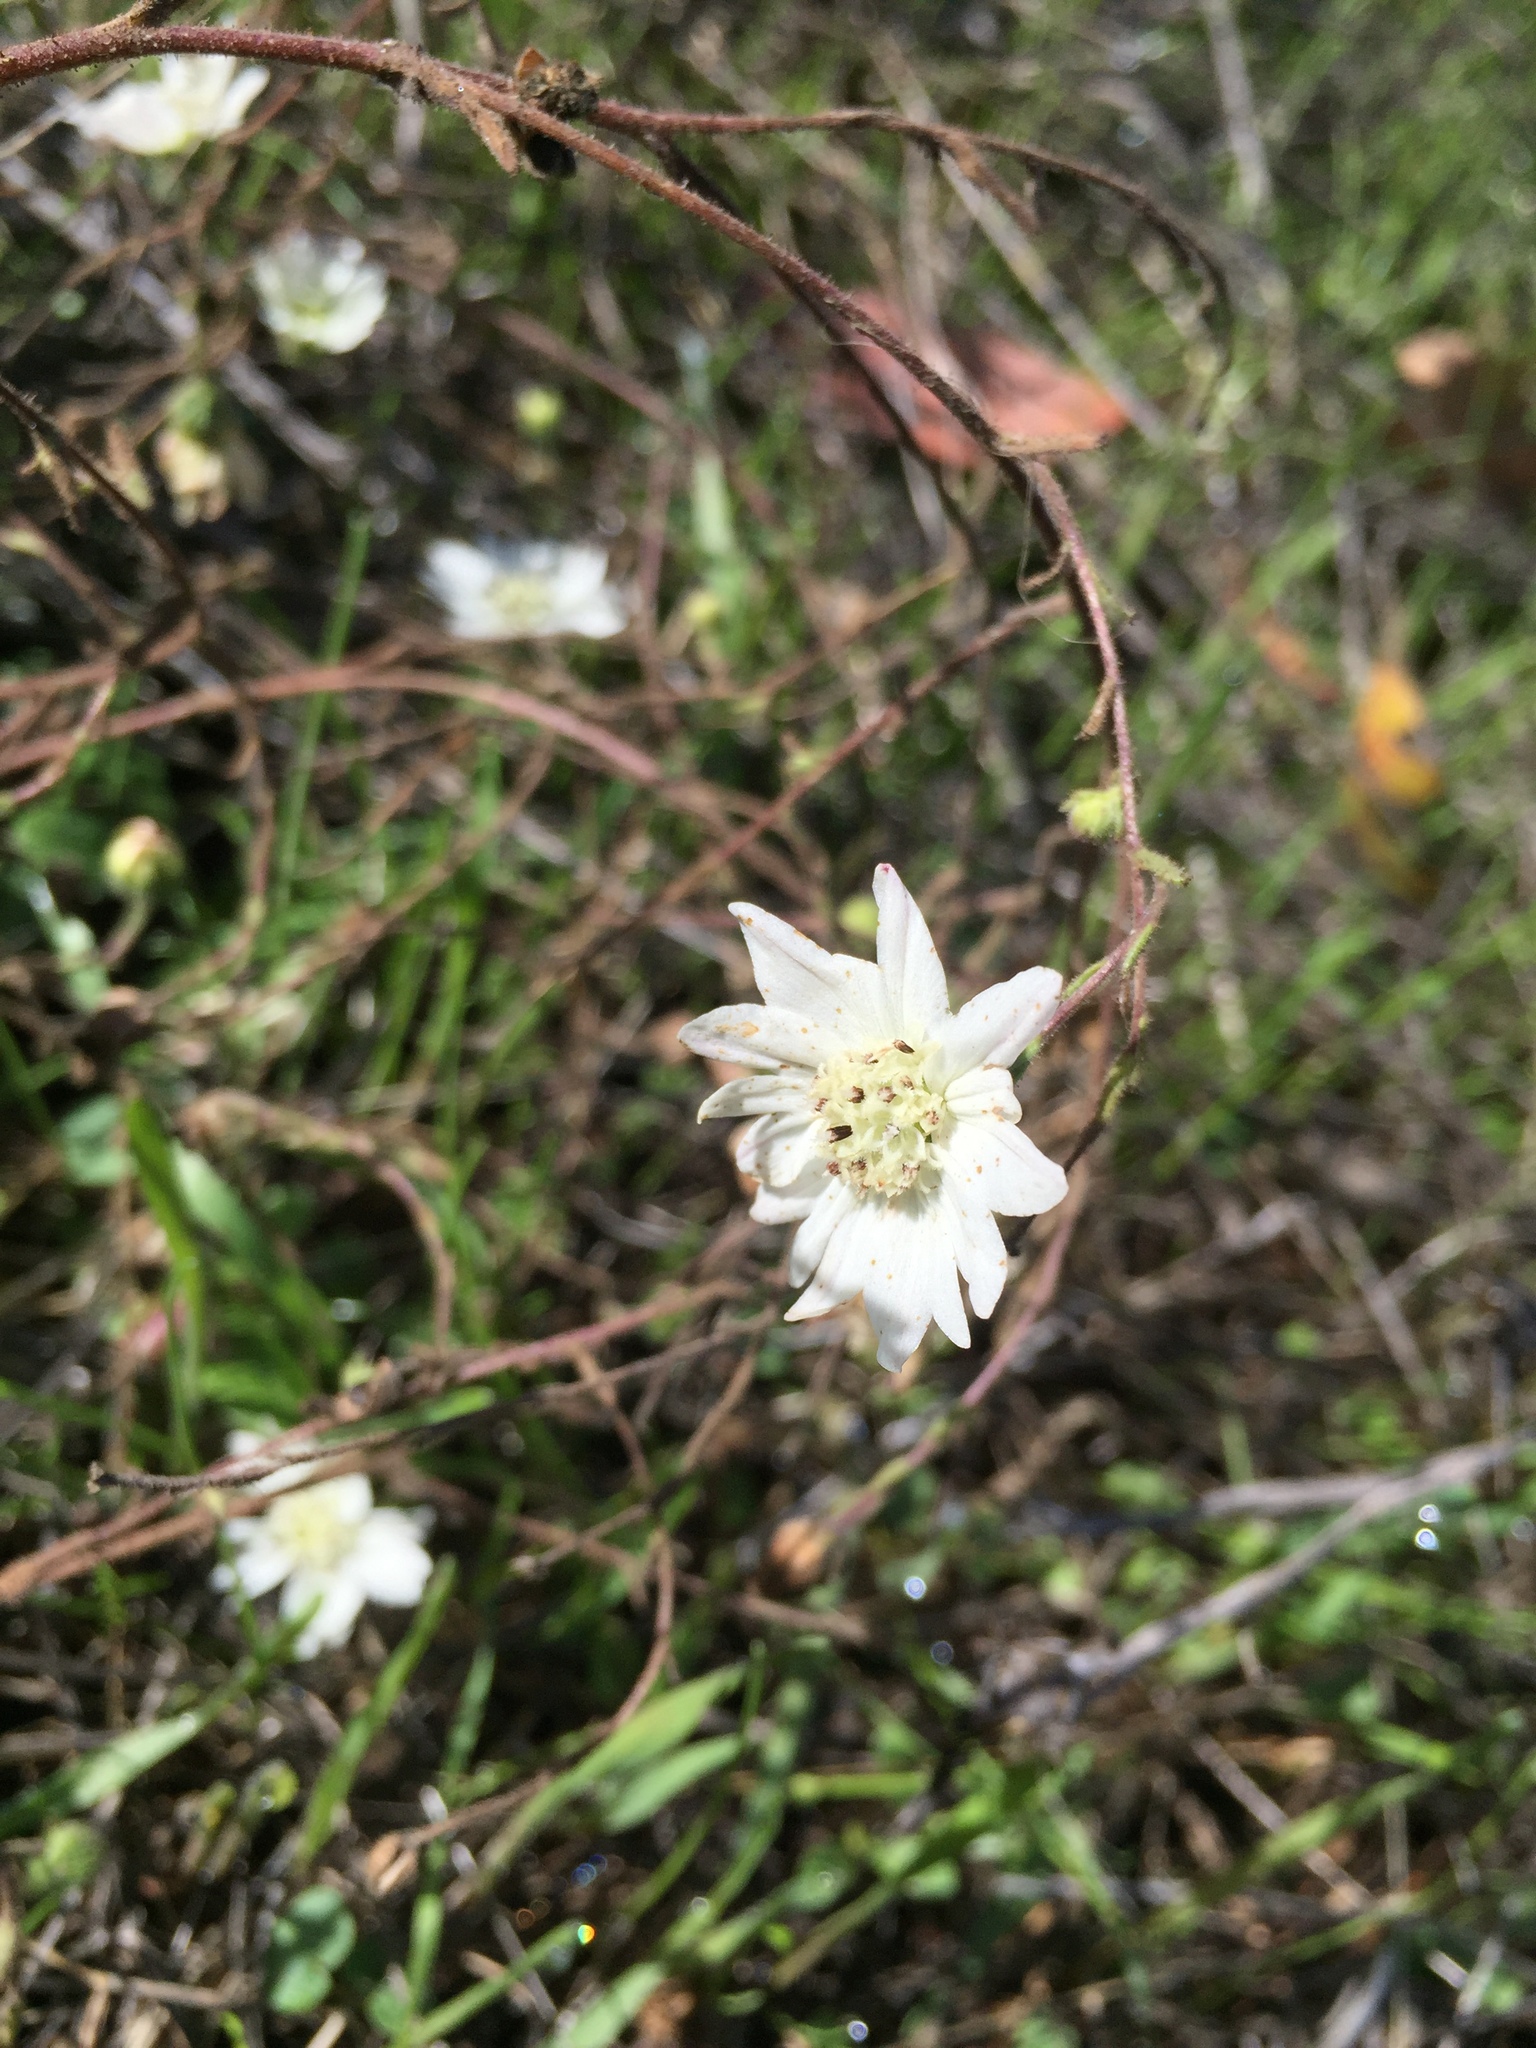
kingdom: Plantae
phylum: Tracheophyta
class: Magnoliopsida
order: Asterales
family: Asteraceae
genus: Hemizonia
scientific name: Hemizonia congesta
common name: Hayfield tarweed
